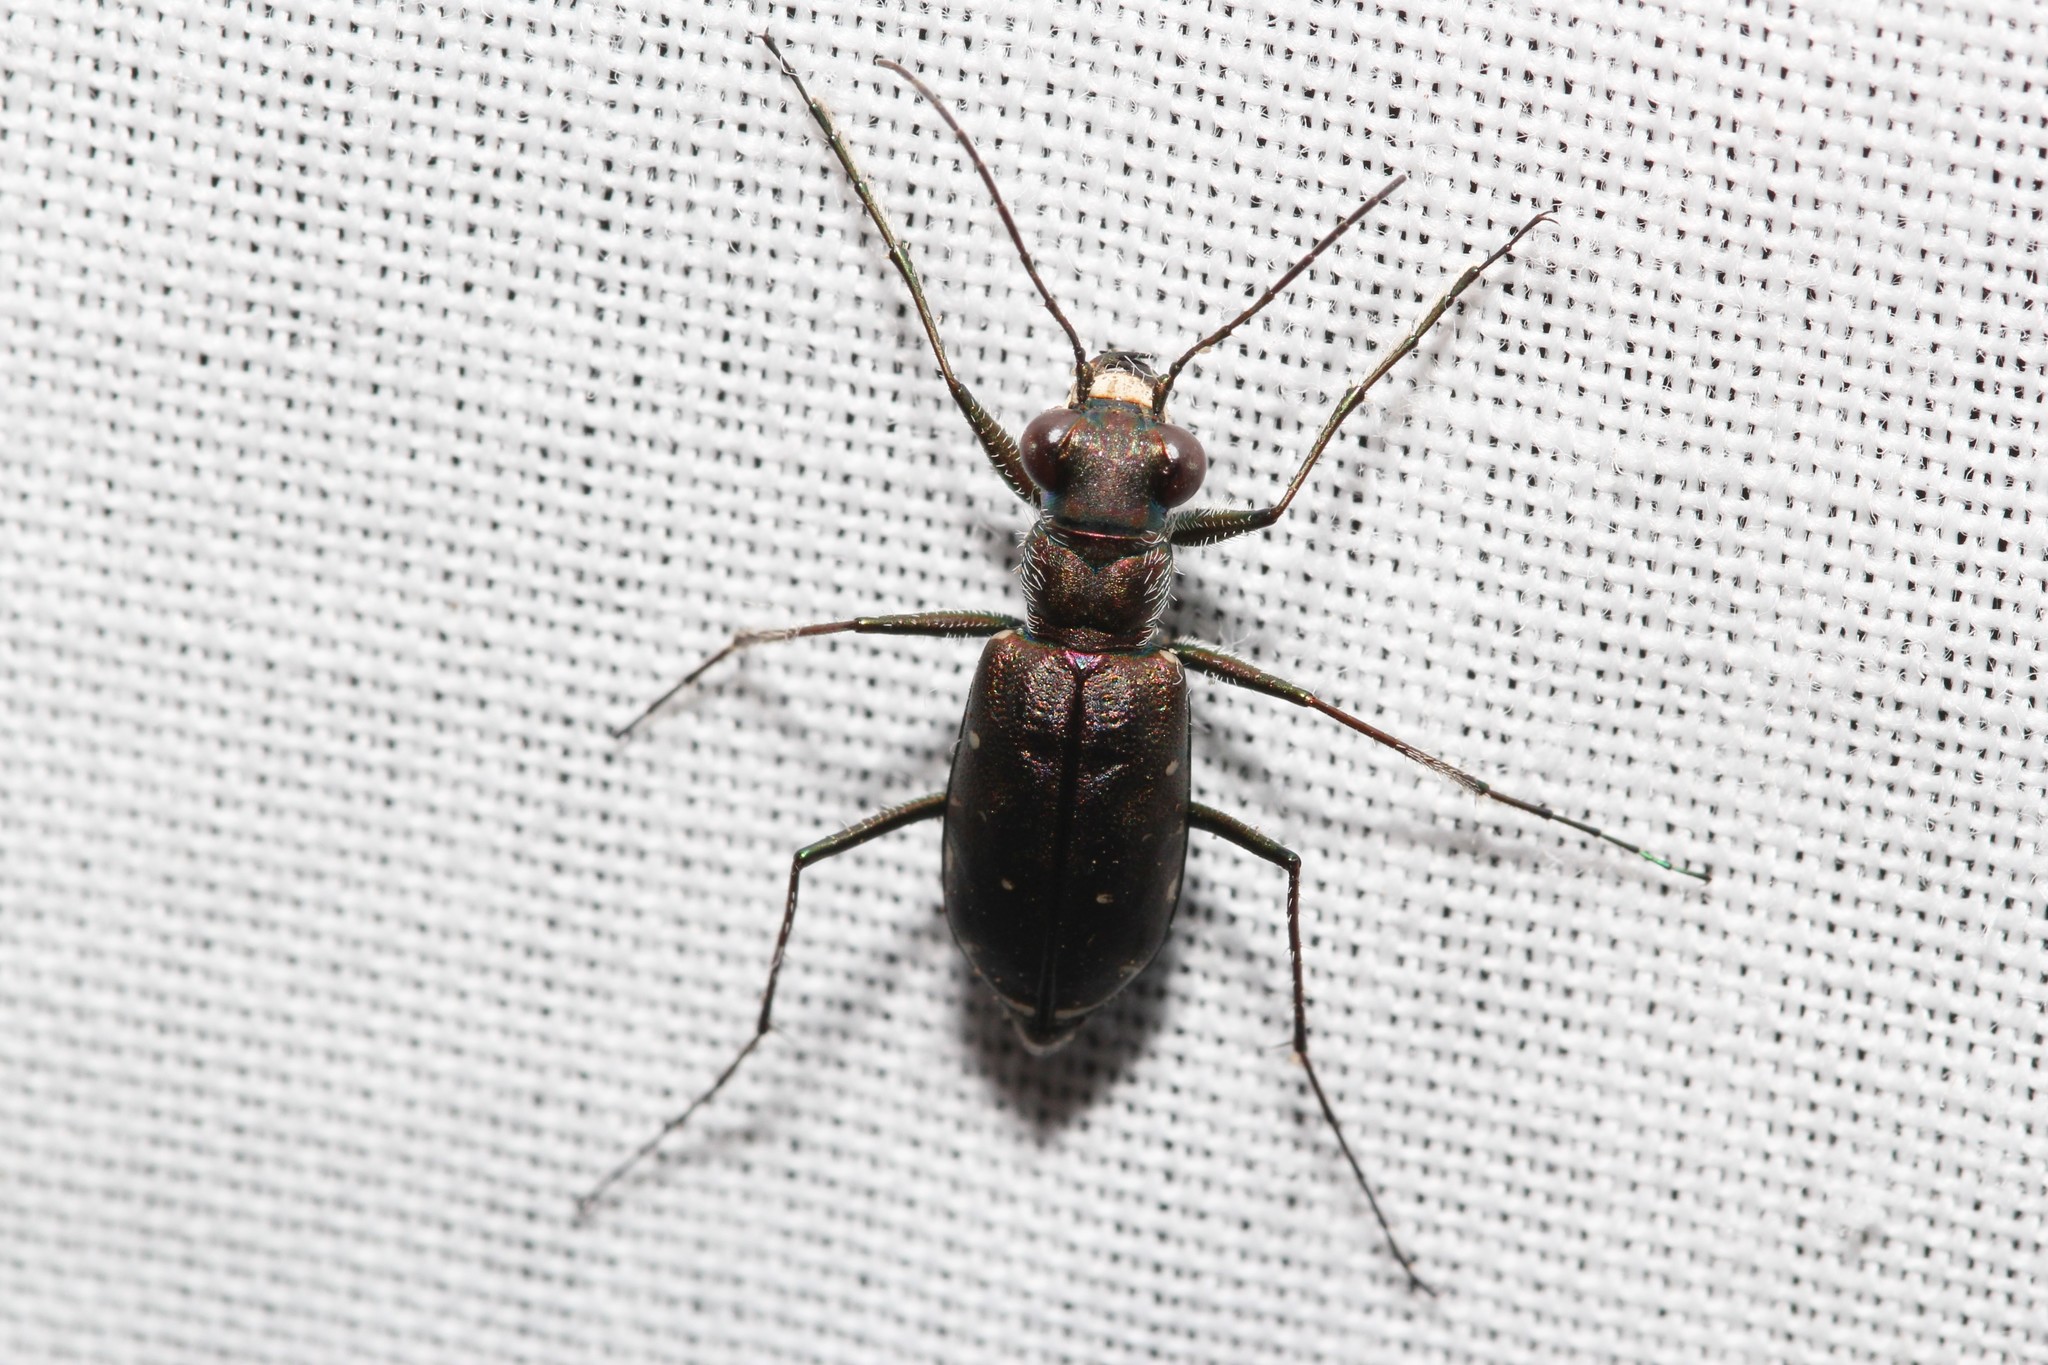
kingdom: Animalia
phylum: Arthropoda
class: Insecta
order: Coleoptera
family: Carabidae
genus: Cicindela
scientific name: Cicindela punctulata
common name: Punctured tiger beetle
